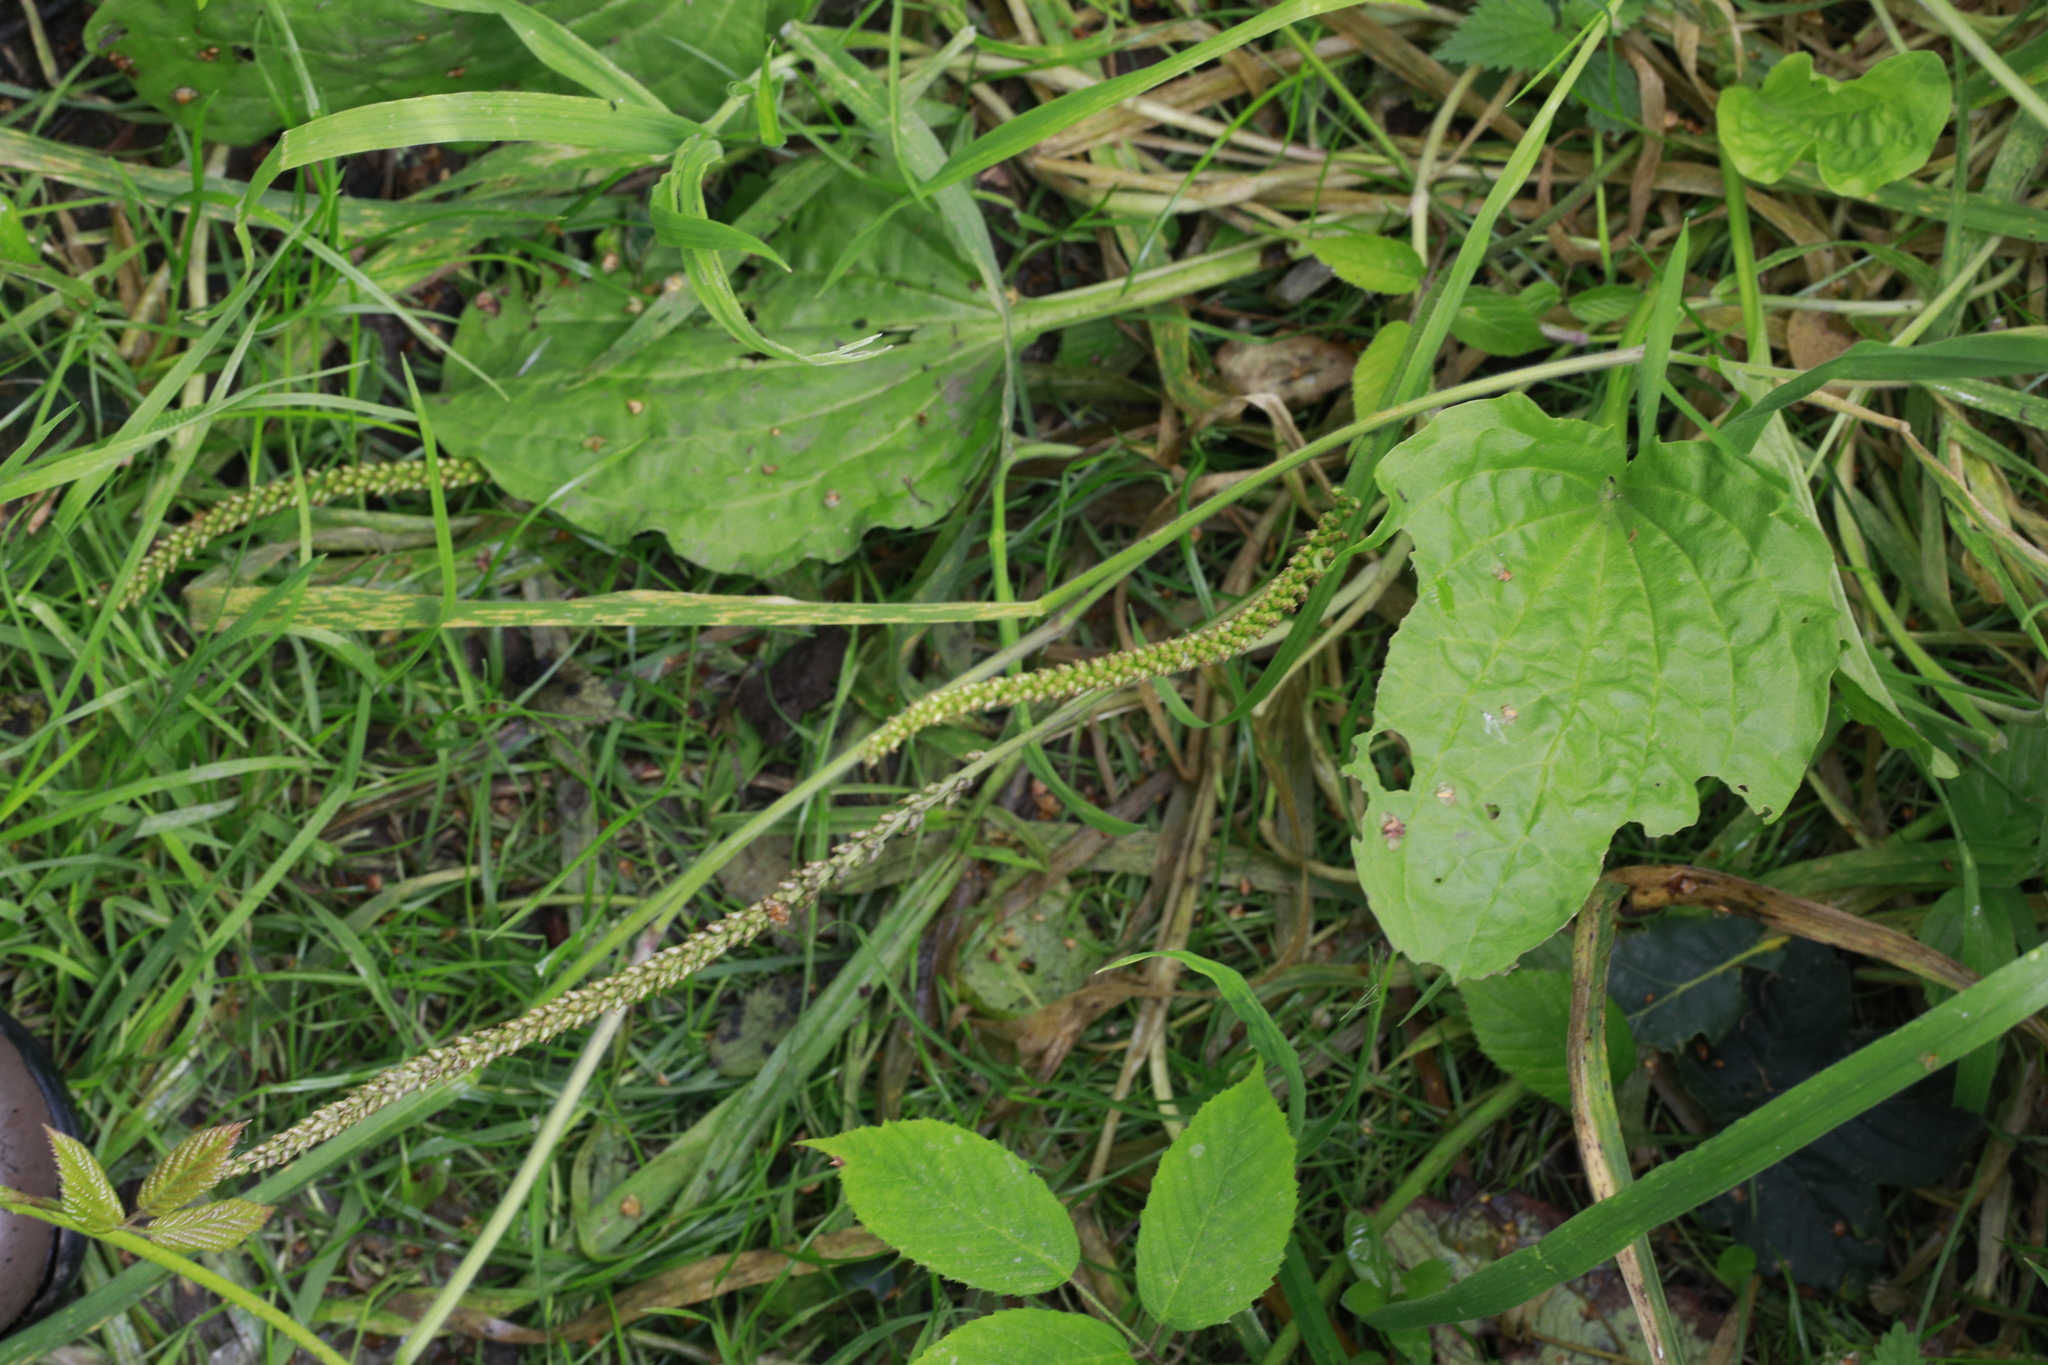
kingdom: Plantae
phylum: Tracheophyta
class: Magnoliopsida
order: Lamiales
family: Plantaginaceae
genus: Plantago
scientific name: Plantago major
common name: Common plantain
